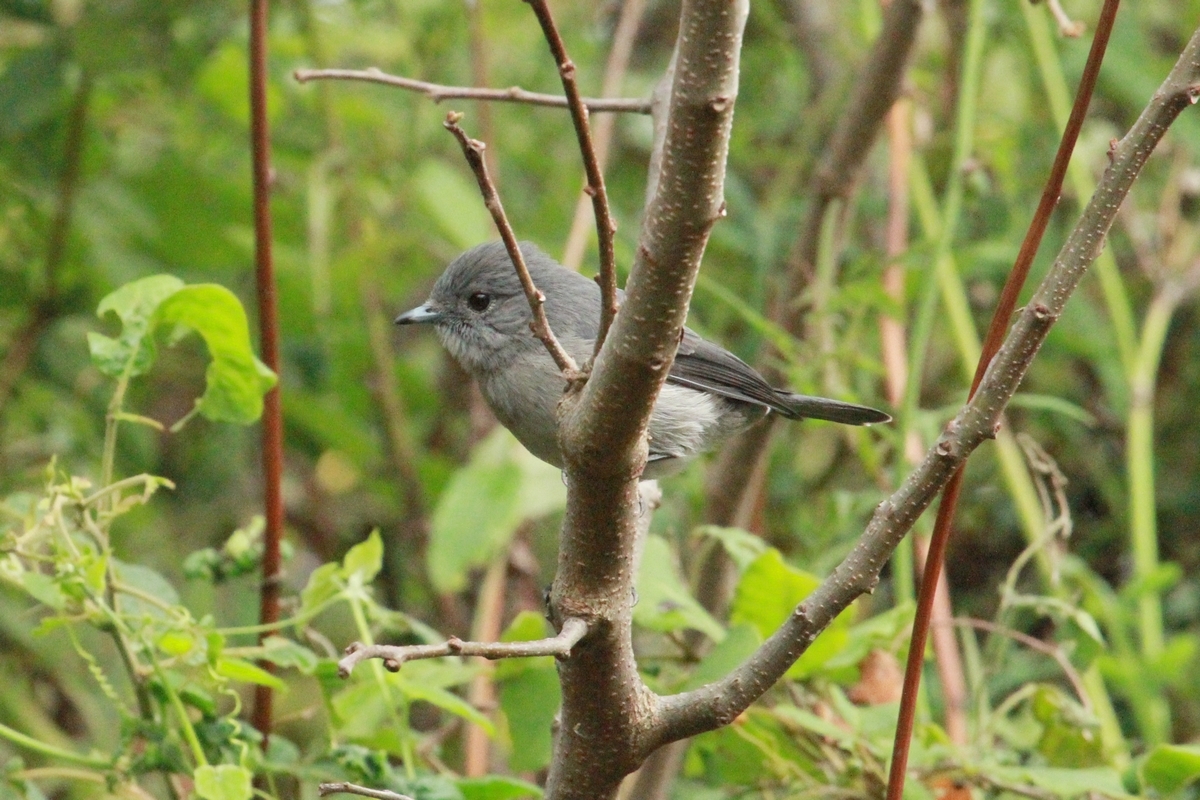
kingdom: Animalia
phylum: Chordata
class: Aves
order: Passeriformes
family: Muscicapidae
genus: Dioptrornis
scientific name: Dioptrornis fischeri
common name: White-eyed slaty flycatcher
